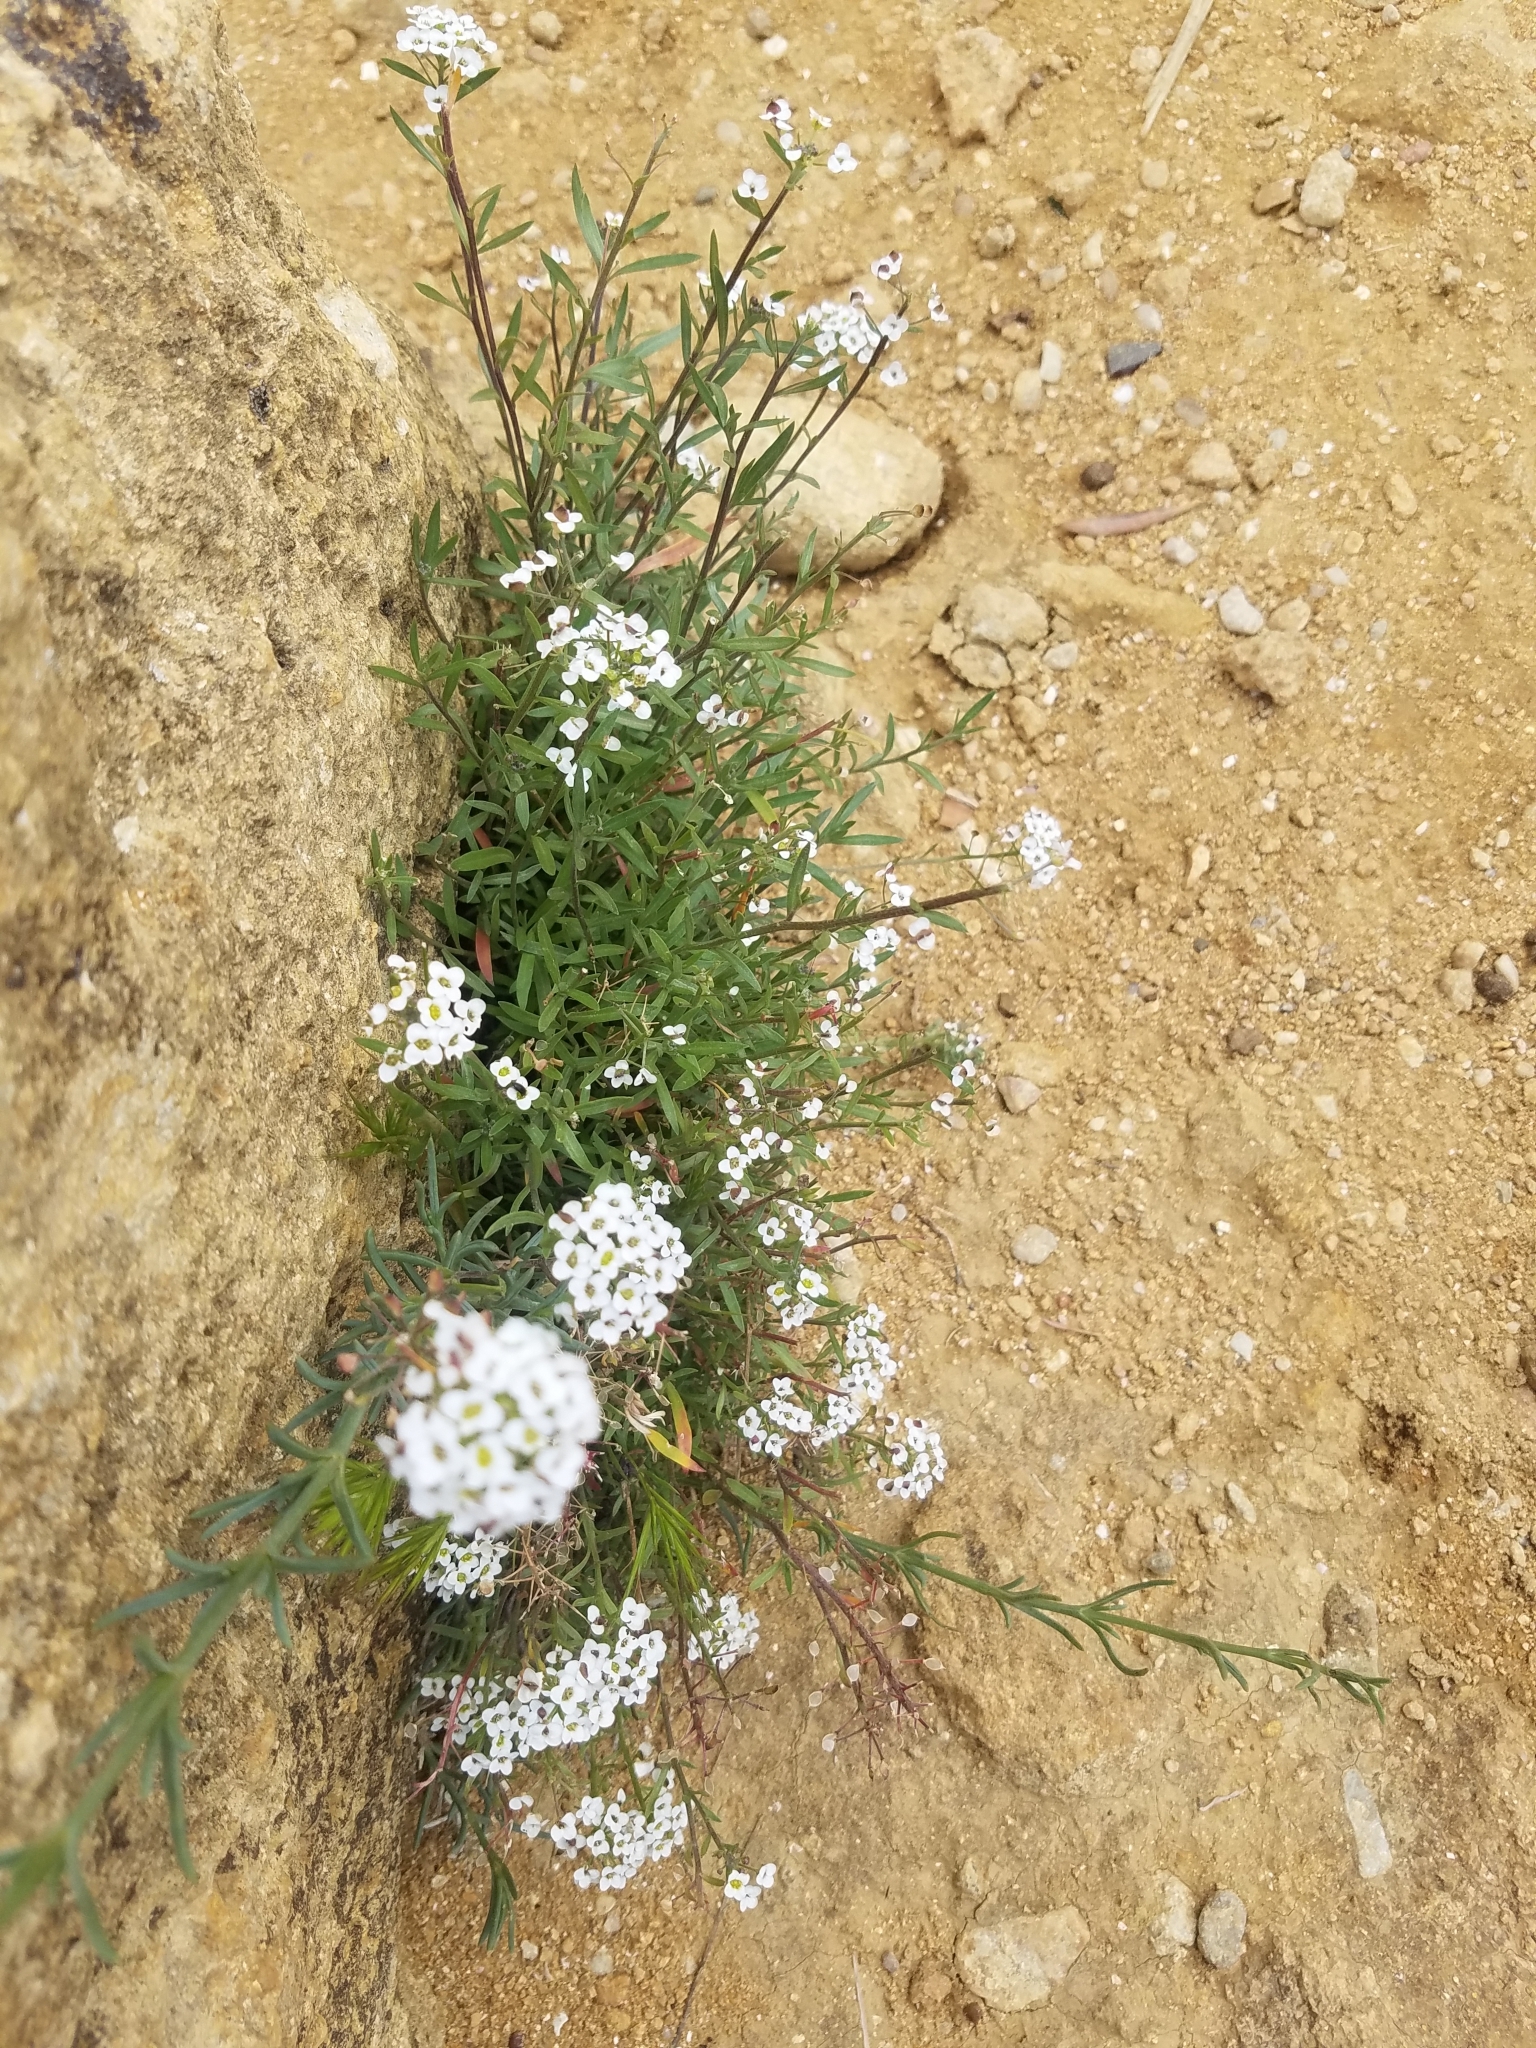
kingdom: Plantae
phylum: Tracheophyta
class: Magnoliopsida
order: Brassicales
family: Brassicaceae
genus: Lobularia
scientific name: Lobularia maritima
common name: Sweet alison
